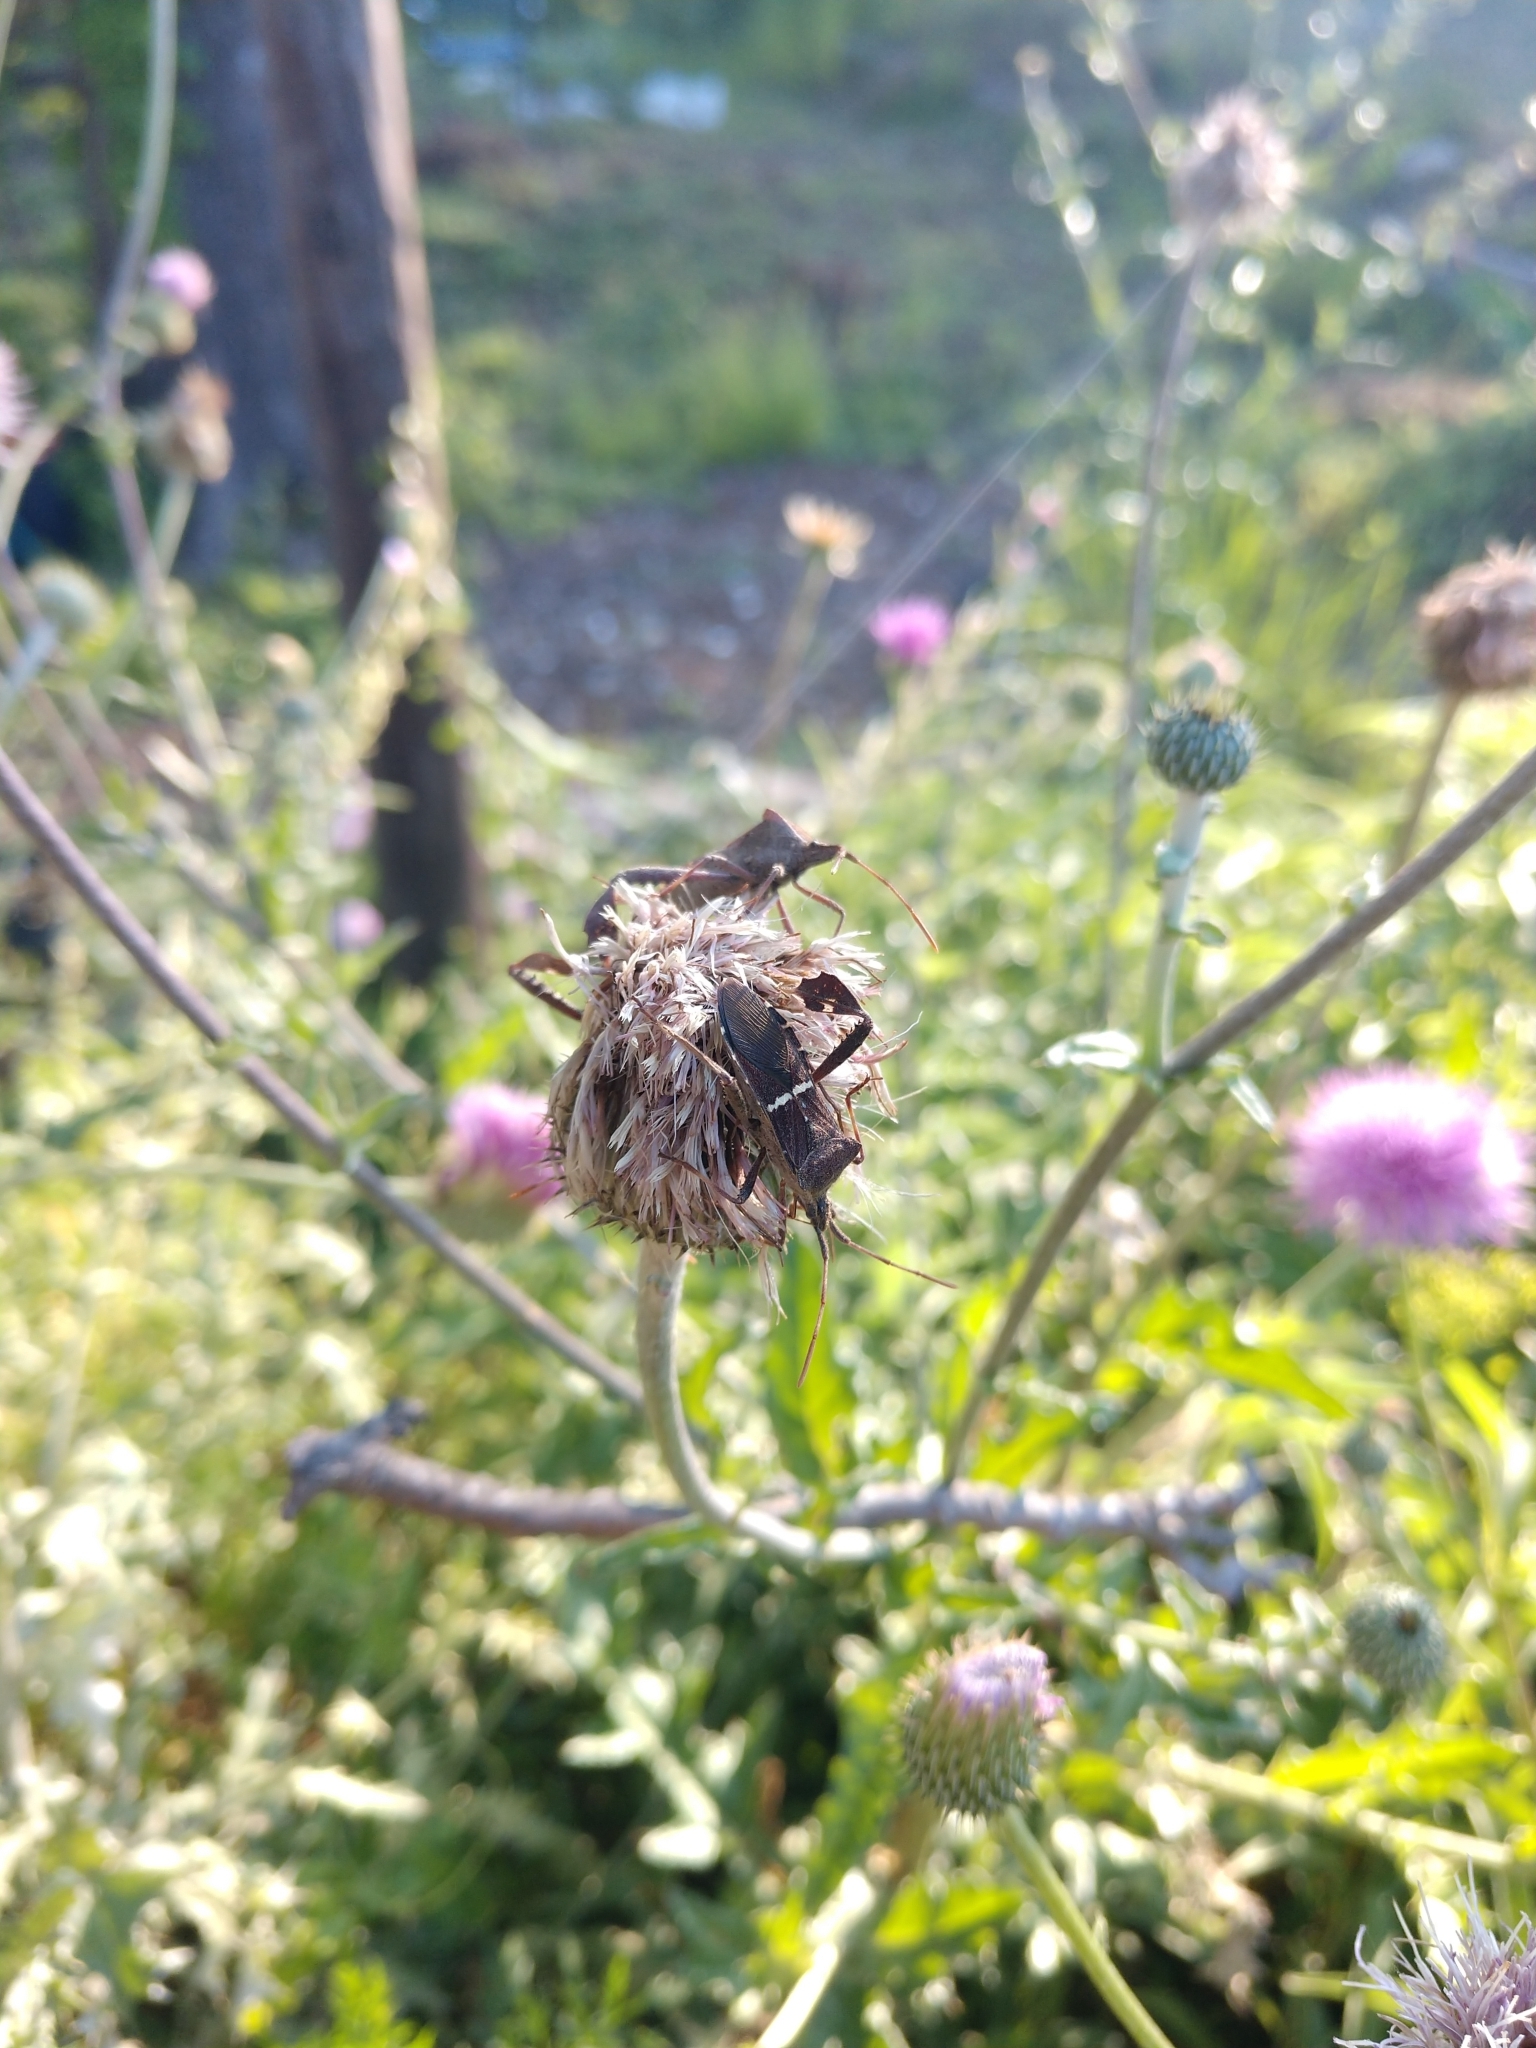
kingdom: Animalia
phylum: Arthropoda
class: Insecta
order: Hemiptera
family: Coreidae
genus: Leptoglossus
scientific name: Leptoglossus phyllopus
